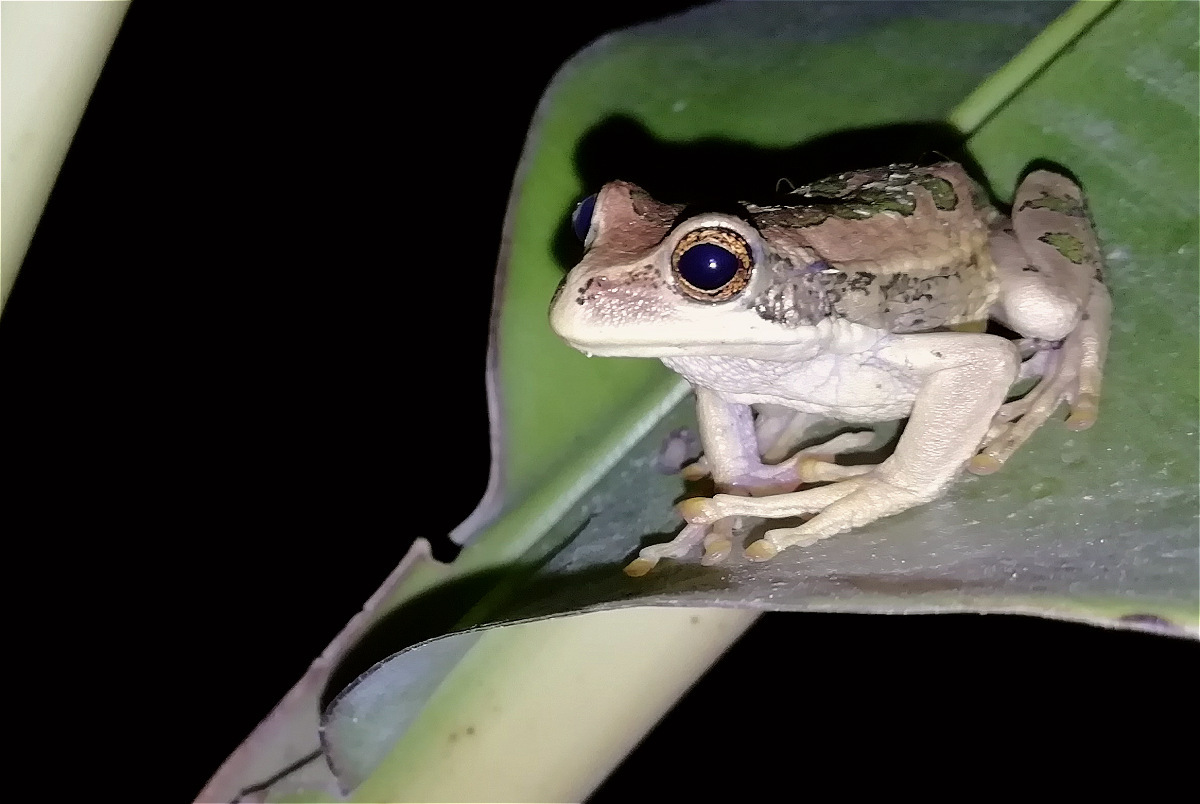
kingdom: Animalia
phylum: Chordata
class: Amphibia
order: Anura
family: Hemiphractidae
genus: Gastrotheca
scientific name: Gastrotheca cuencana
